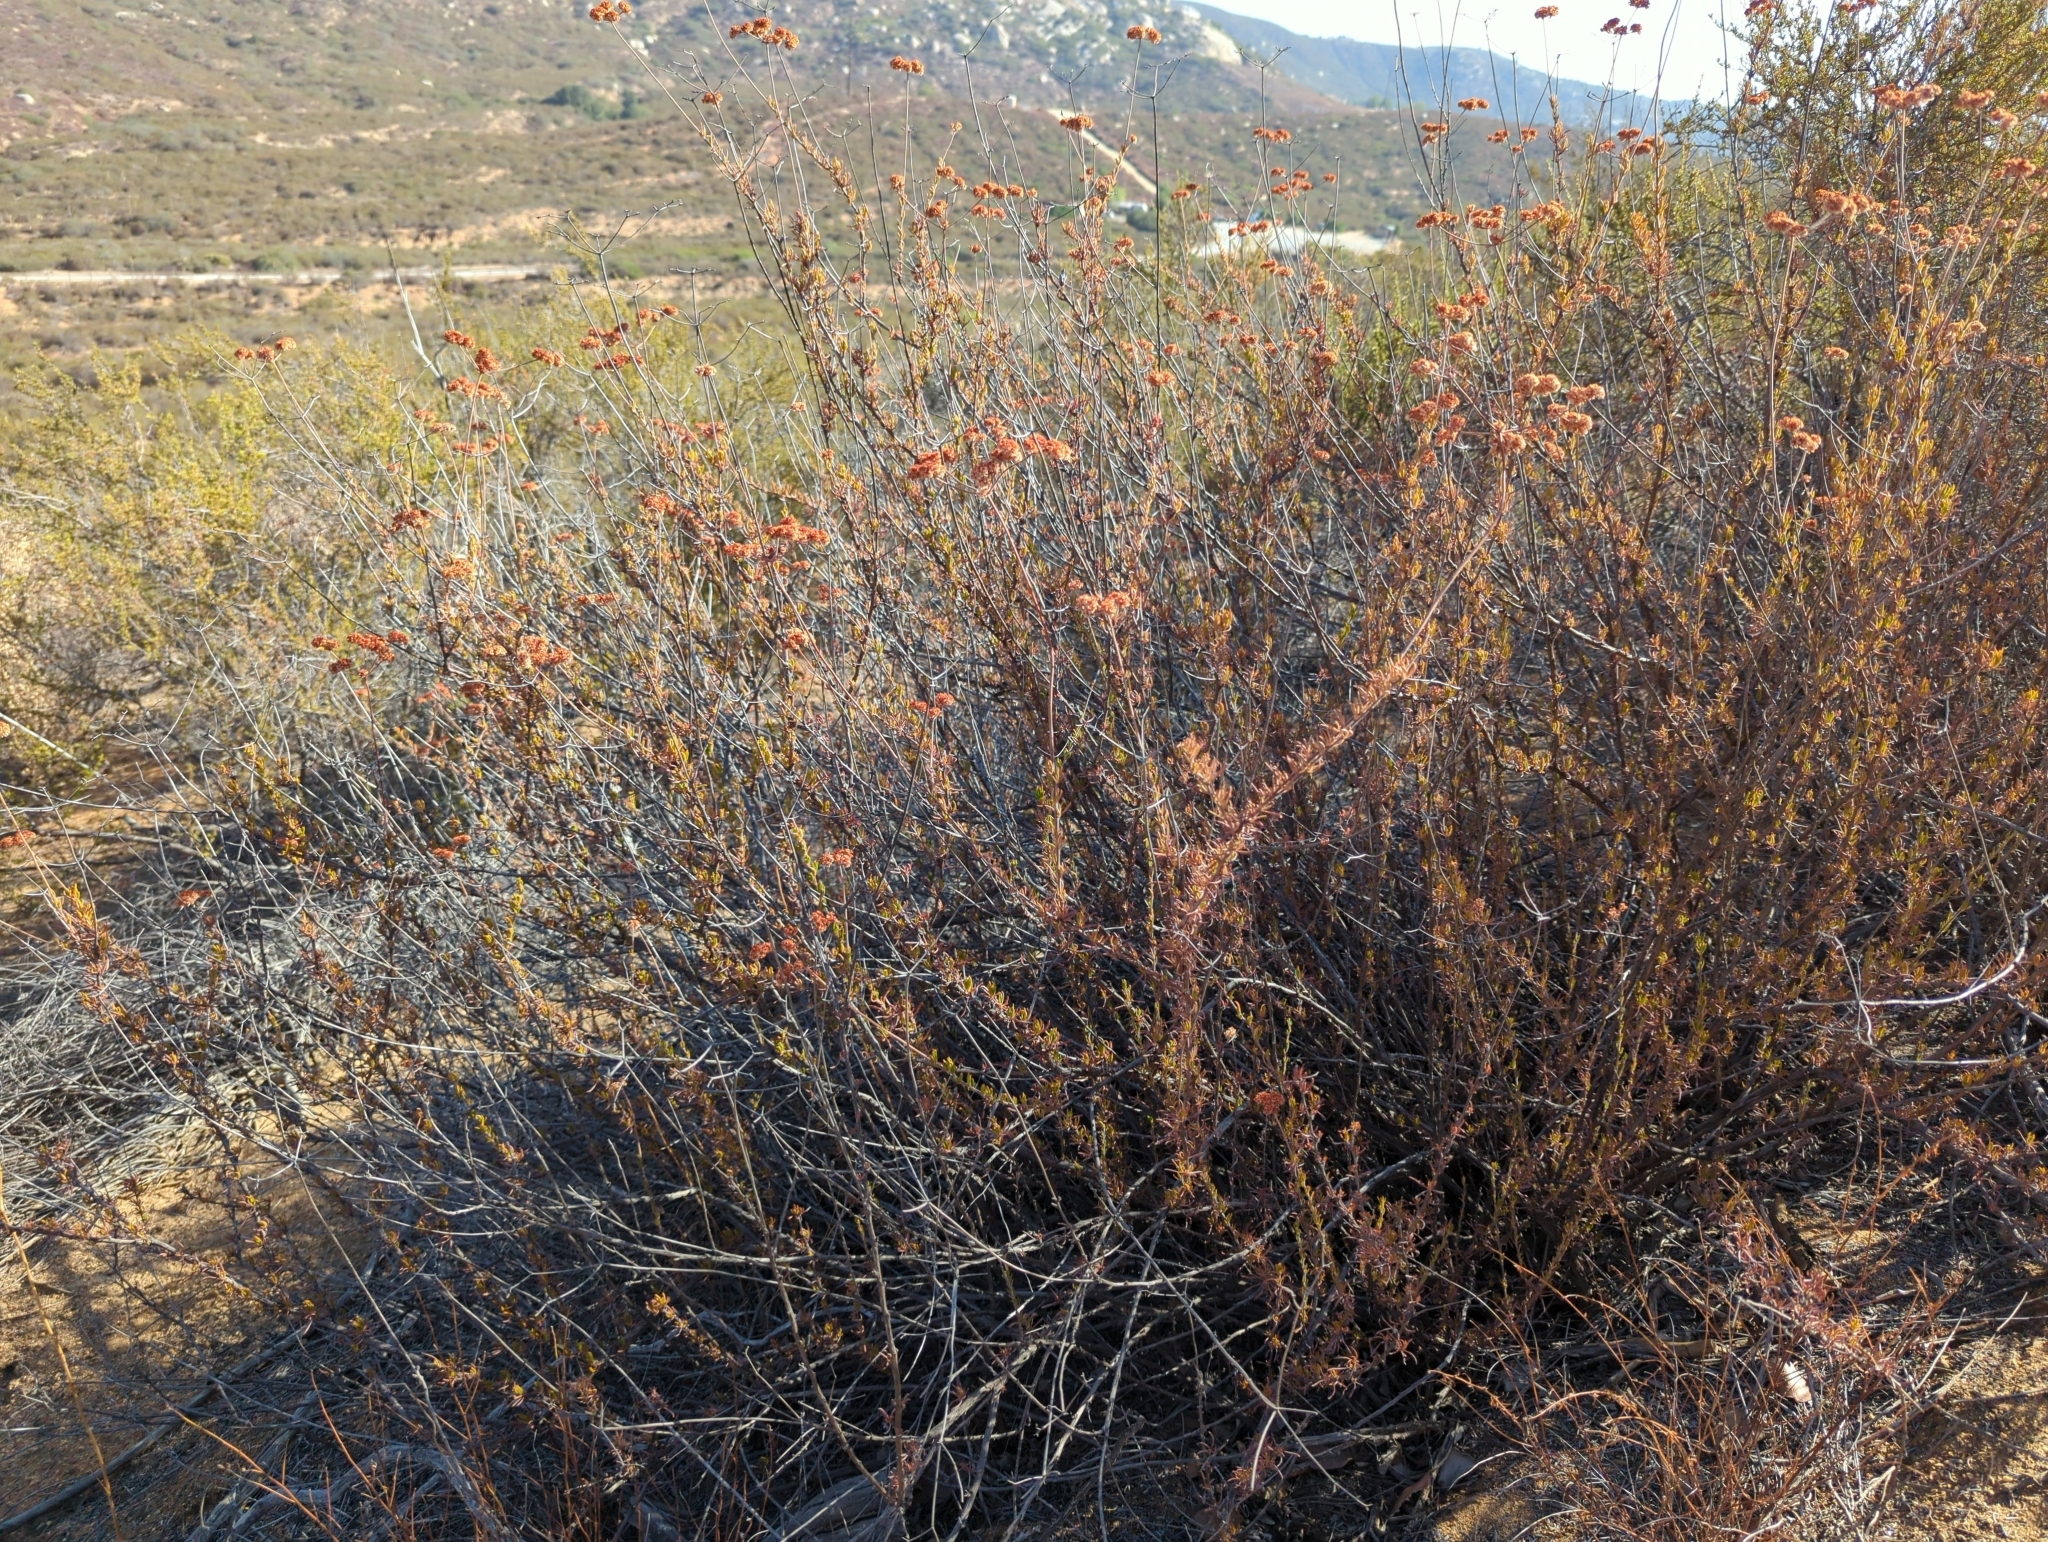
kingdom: Plantae
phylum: Tracheophyta
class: Magnoliopsida
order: Caryophyllales
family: Polygonaceae
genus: Eriogonum
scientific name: Eriogonum fasciculatum
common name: California wild buckwheat
